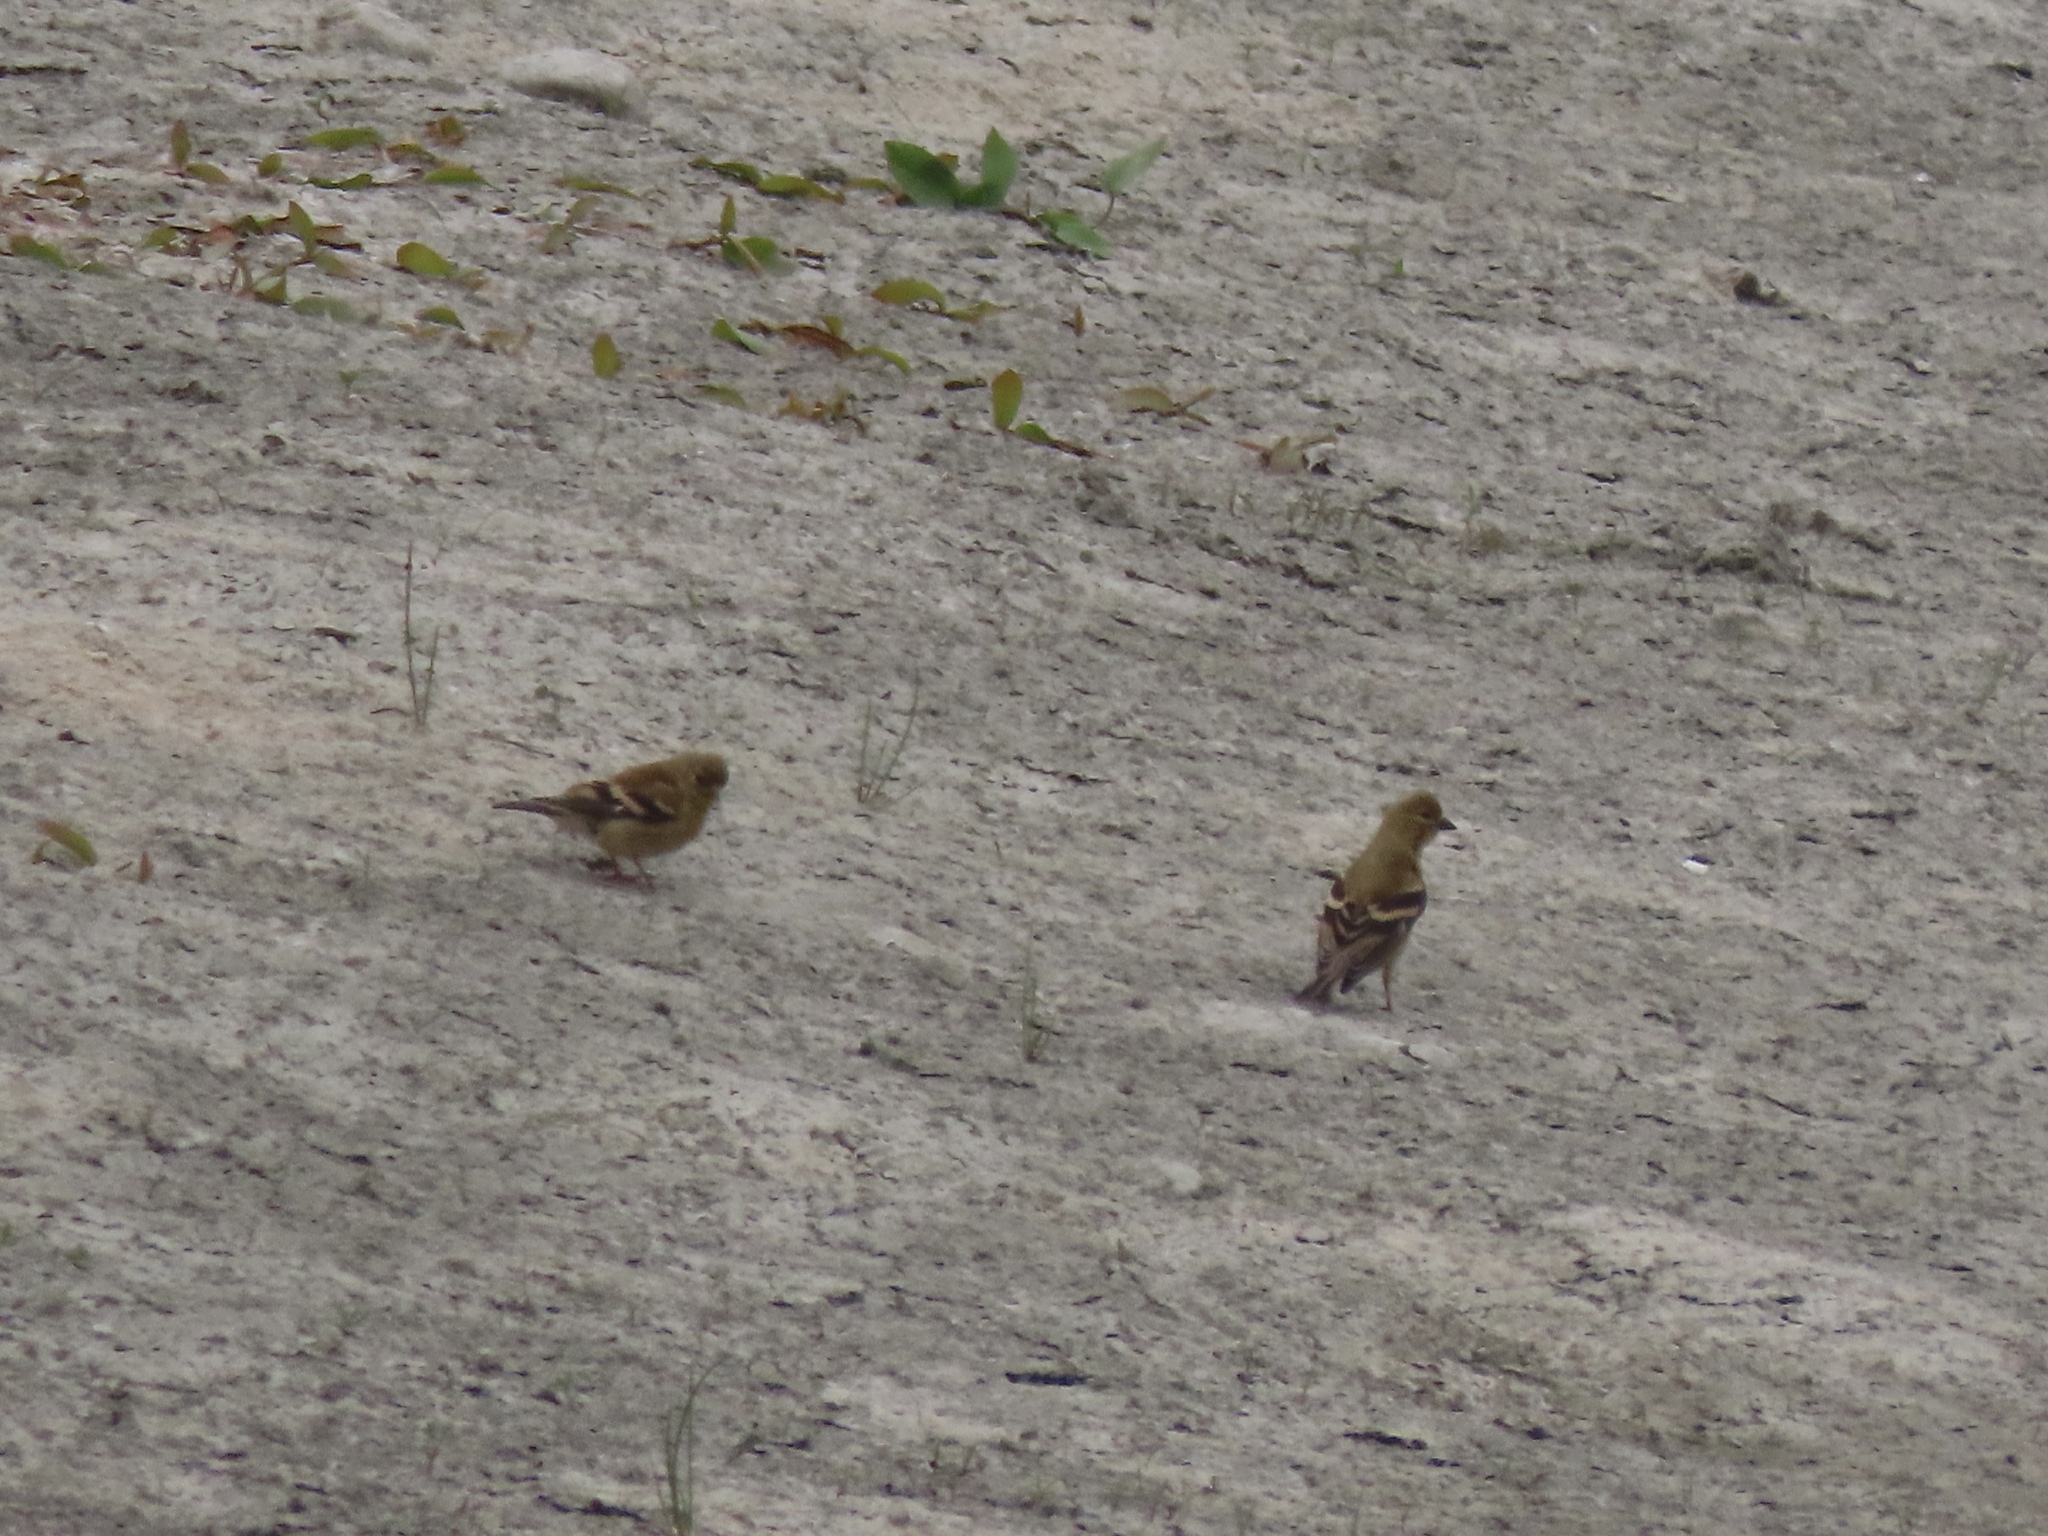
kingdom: Animalia
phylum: Chordata
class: Aves
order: Passeriformes
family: Fringillidae
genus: Spinus
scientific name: Spinus tristis
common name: American goldfinch
